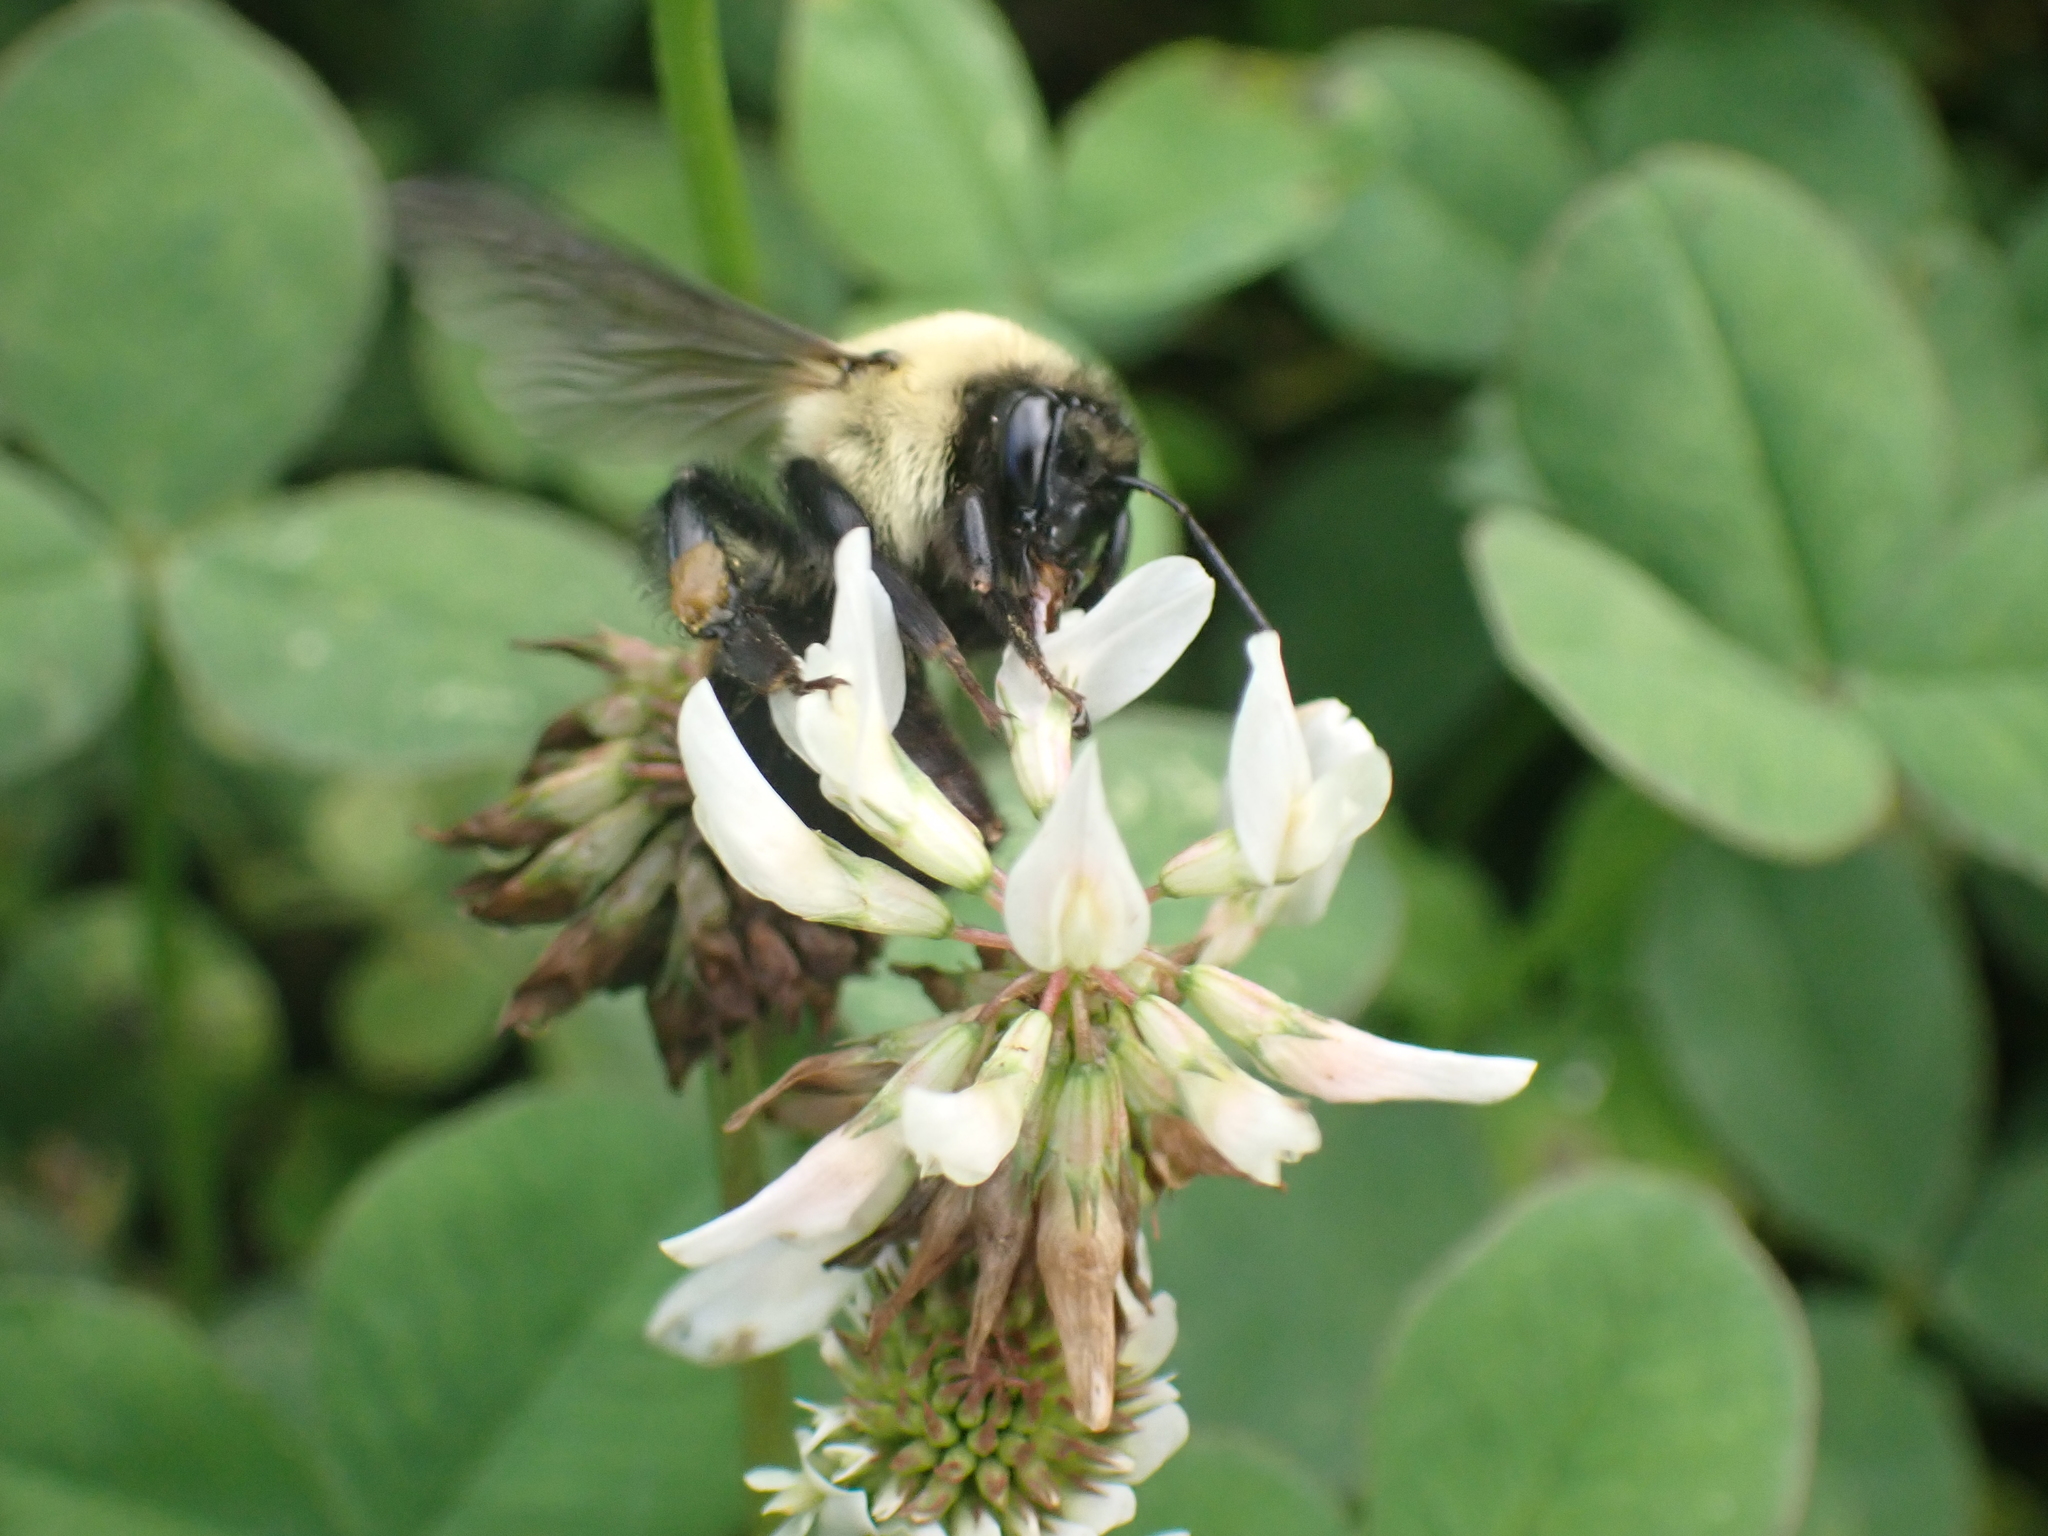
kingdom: Animalia
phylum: Arthropoda
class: Insecta
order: Hymenoptera
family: Apidae
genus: Bombus
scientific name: Bombus griseocollis
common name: Brown-belted bumble bee
